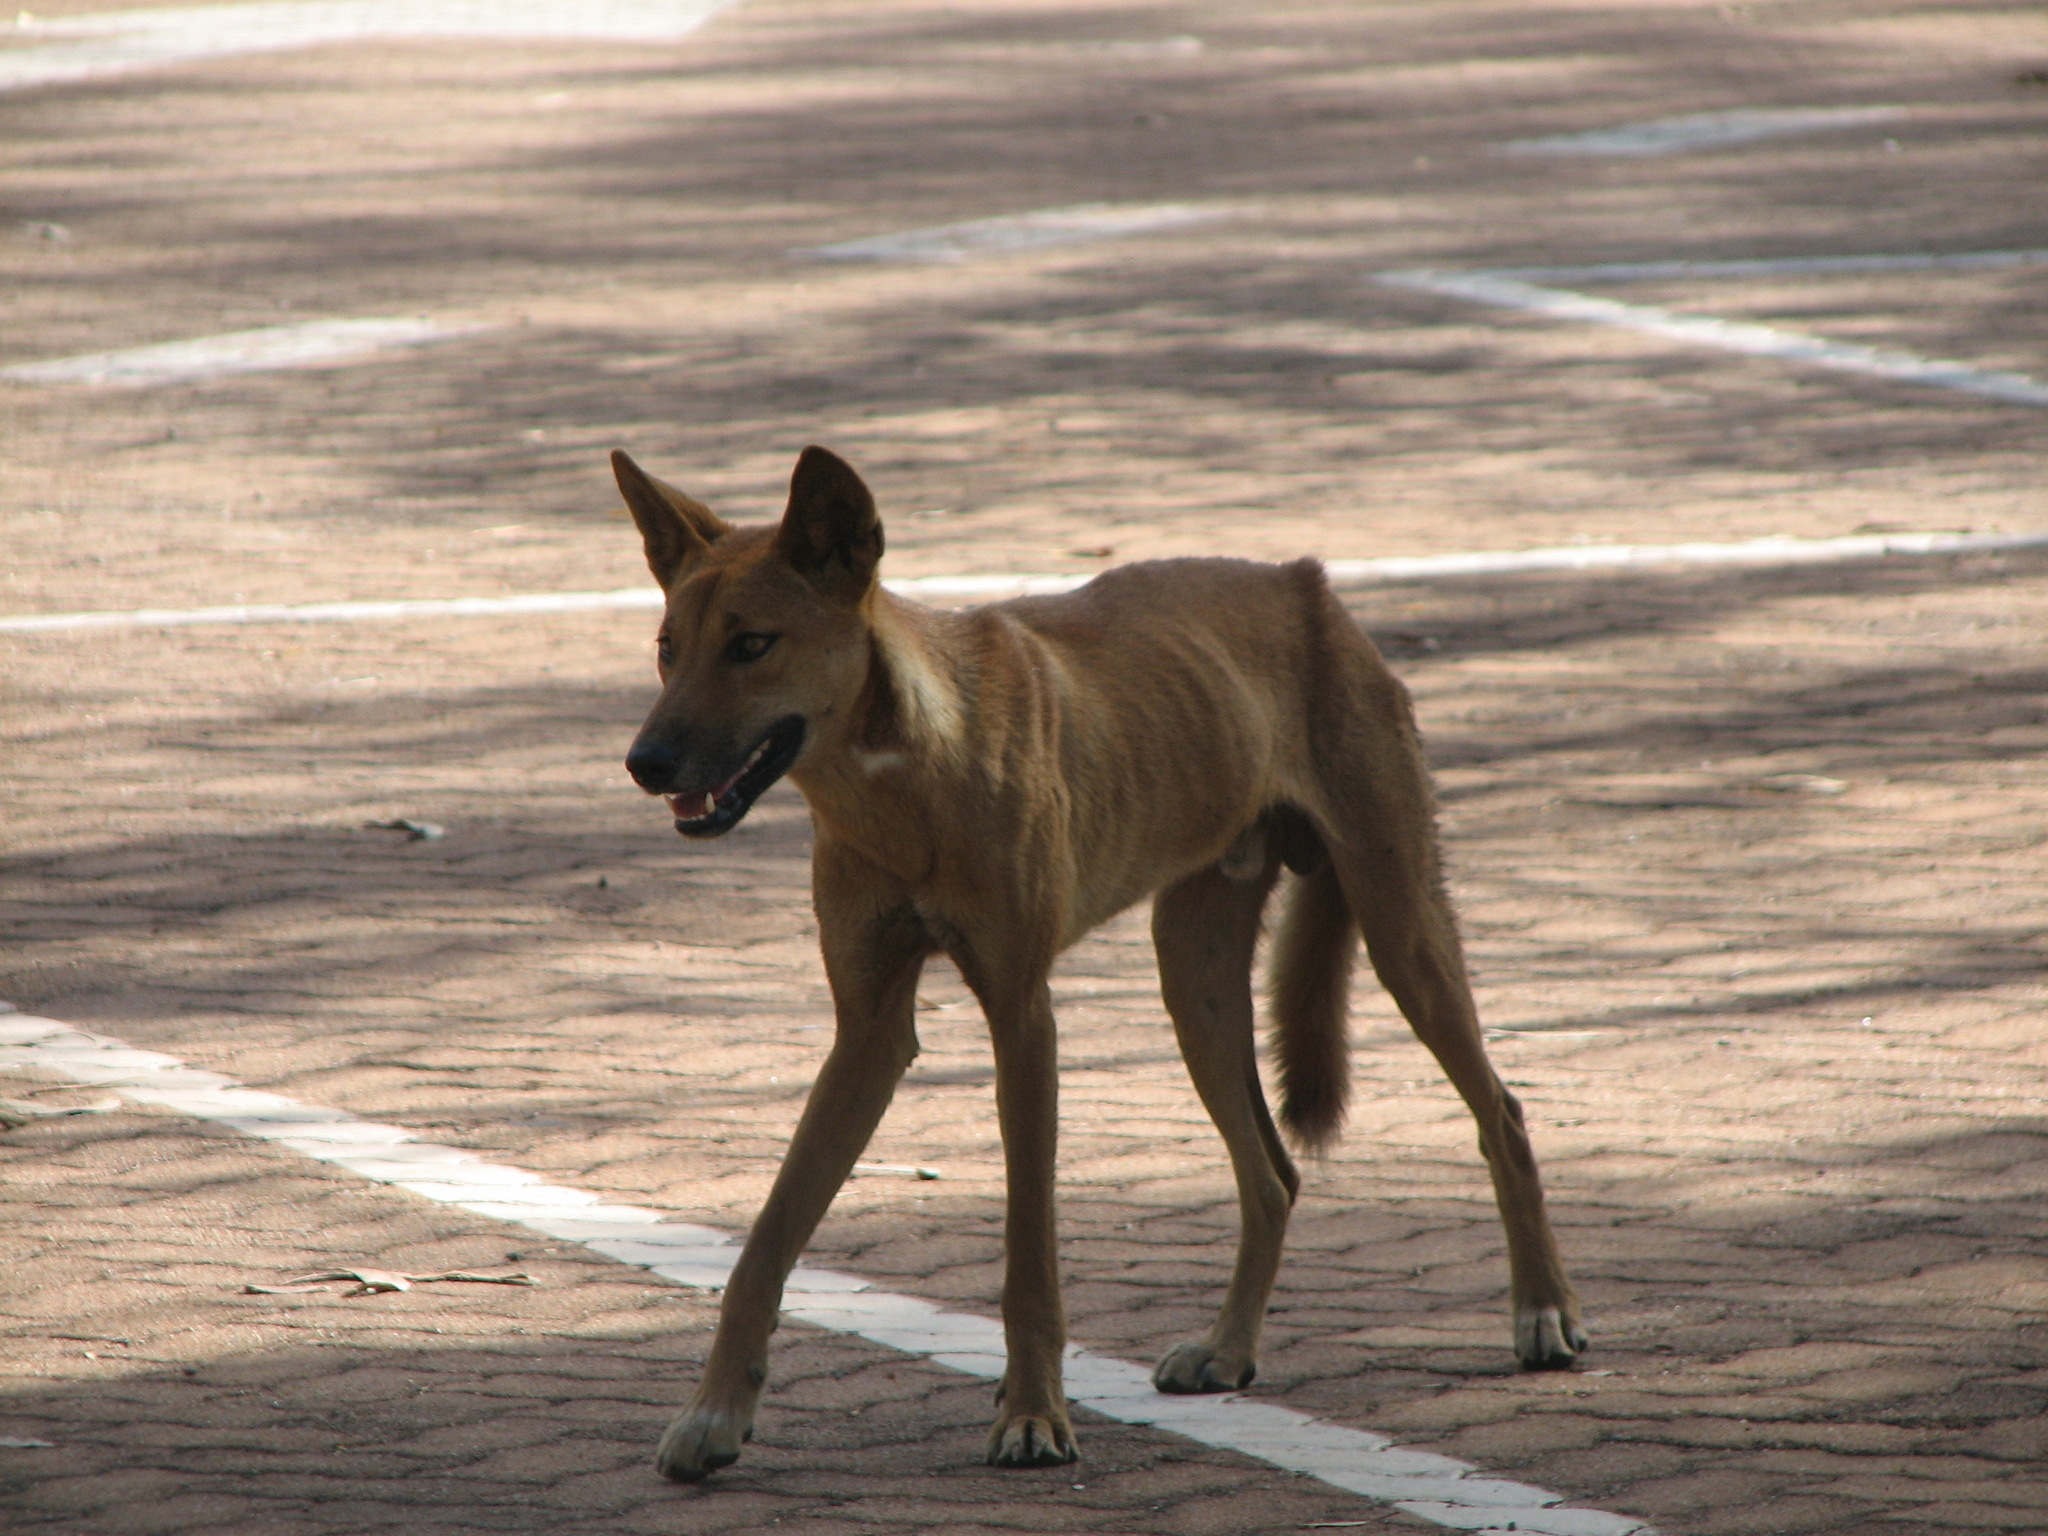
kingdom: Animalia
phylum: Chordata
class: Mammalia
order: Carnivora
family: Canidae
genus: Canis
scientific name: Canis lupus
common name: Gray wolf
